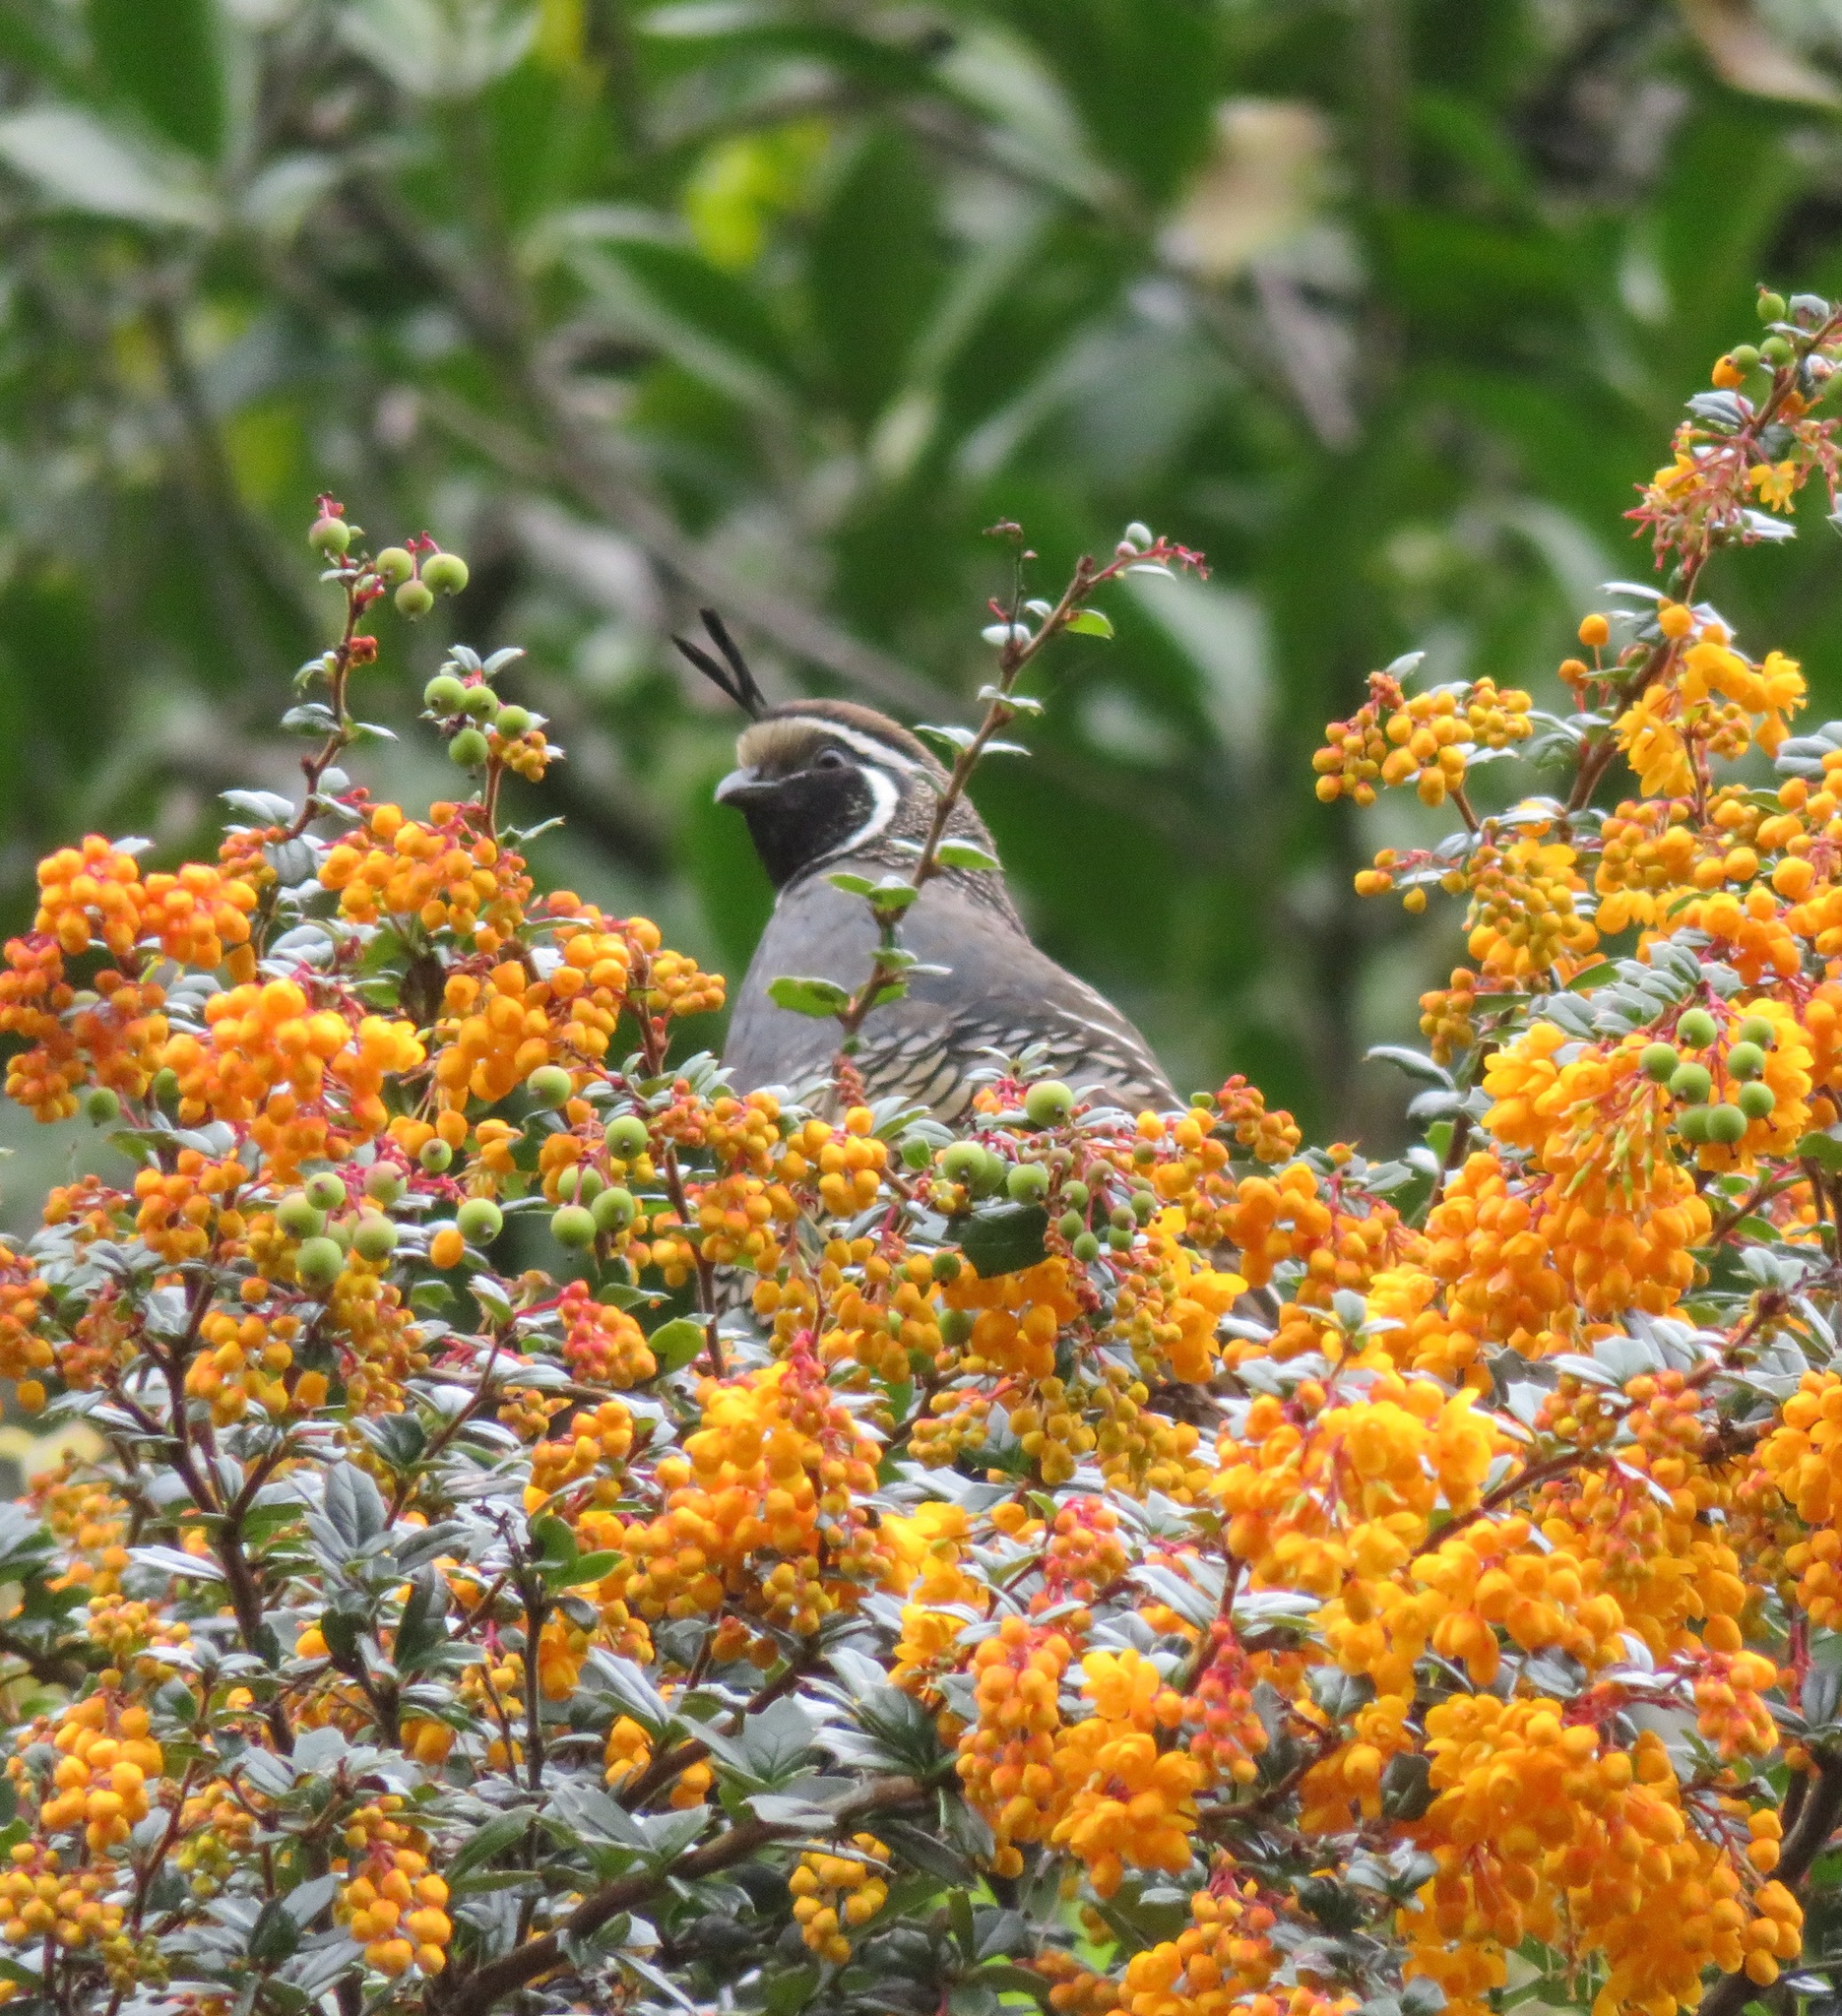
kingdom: Animalia
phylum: Chordata
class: Aves
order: Galliformes
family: Odontophoridae
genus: Callipepla
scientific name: Callipepla californica
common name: California quail
